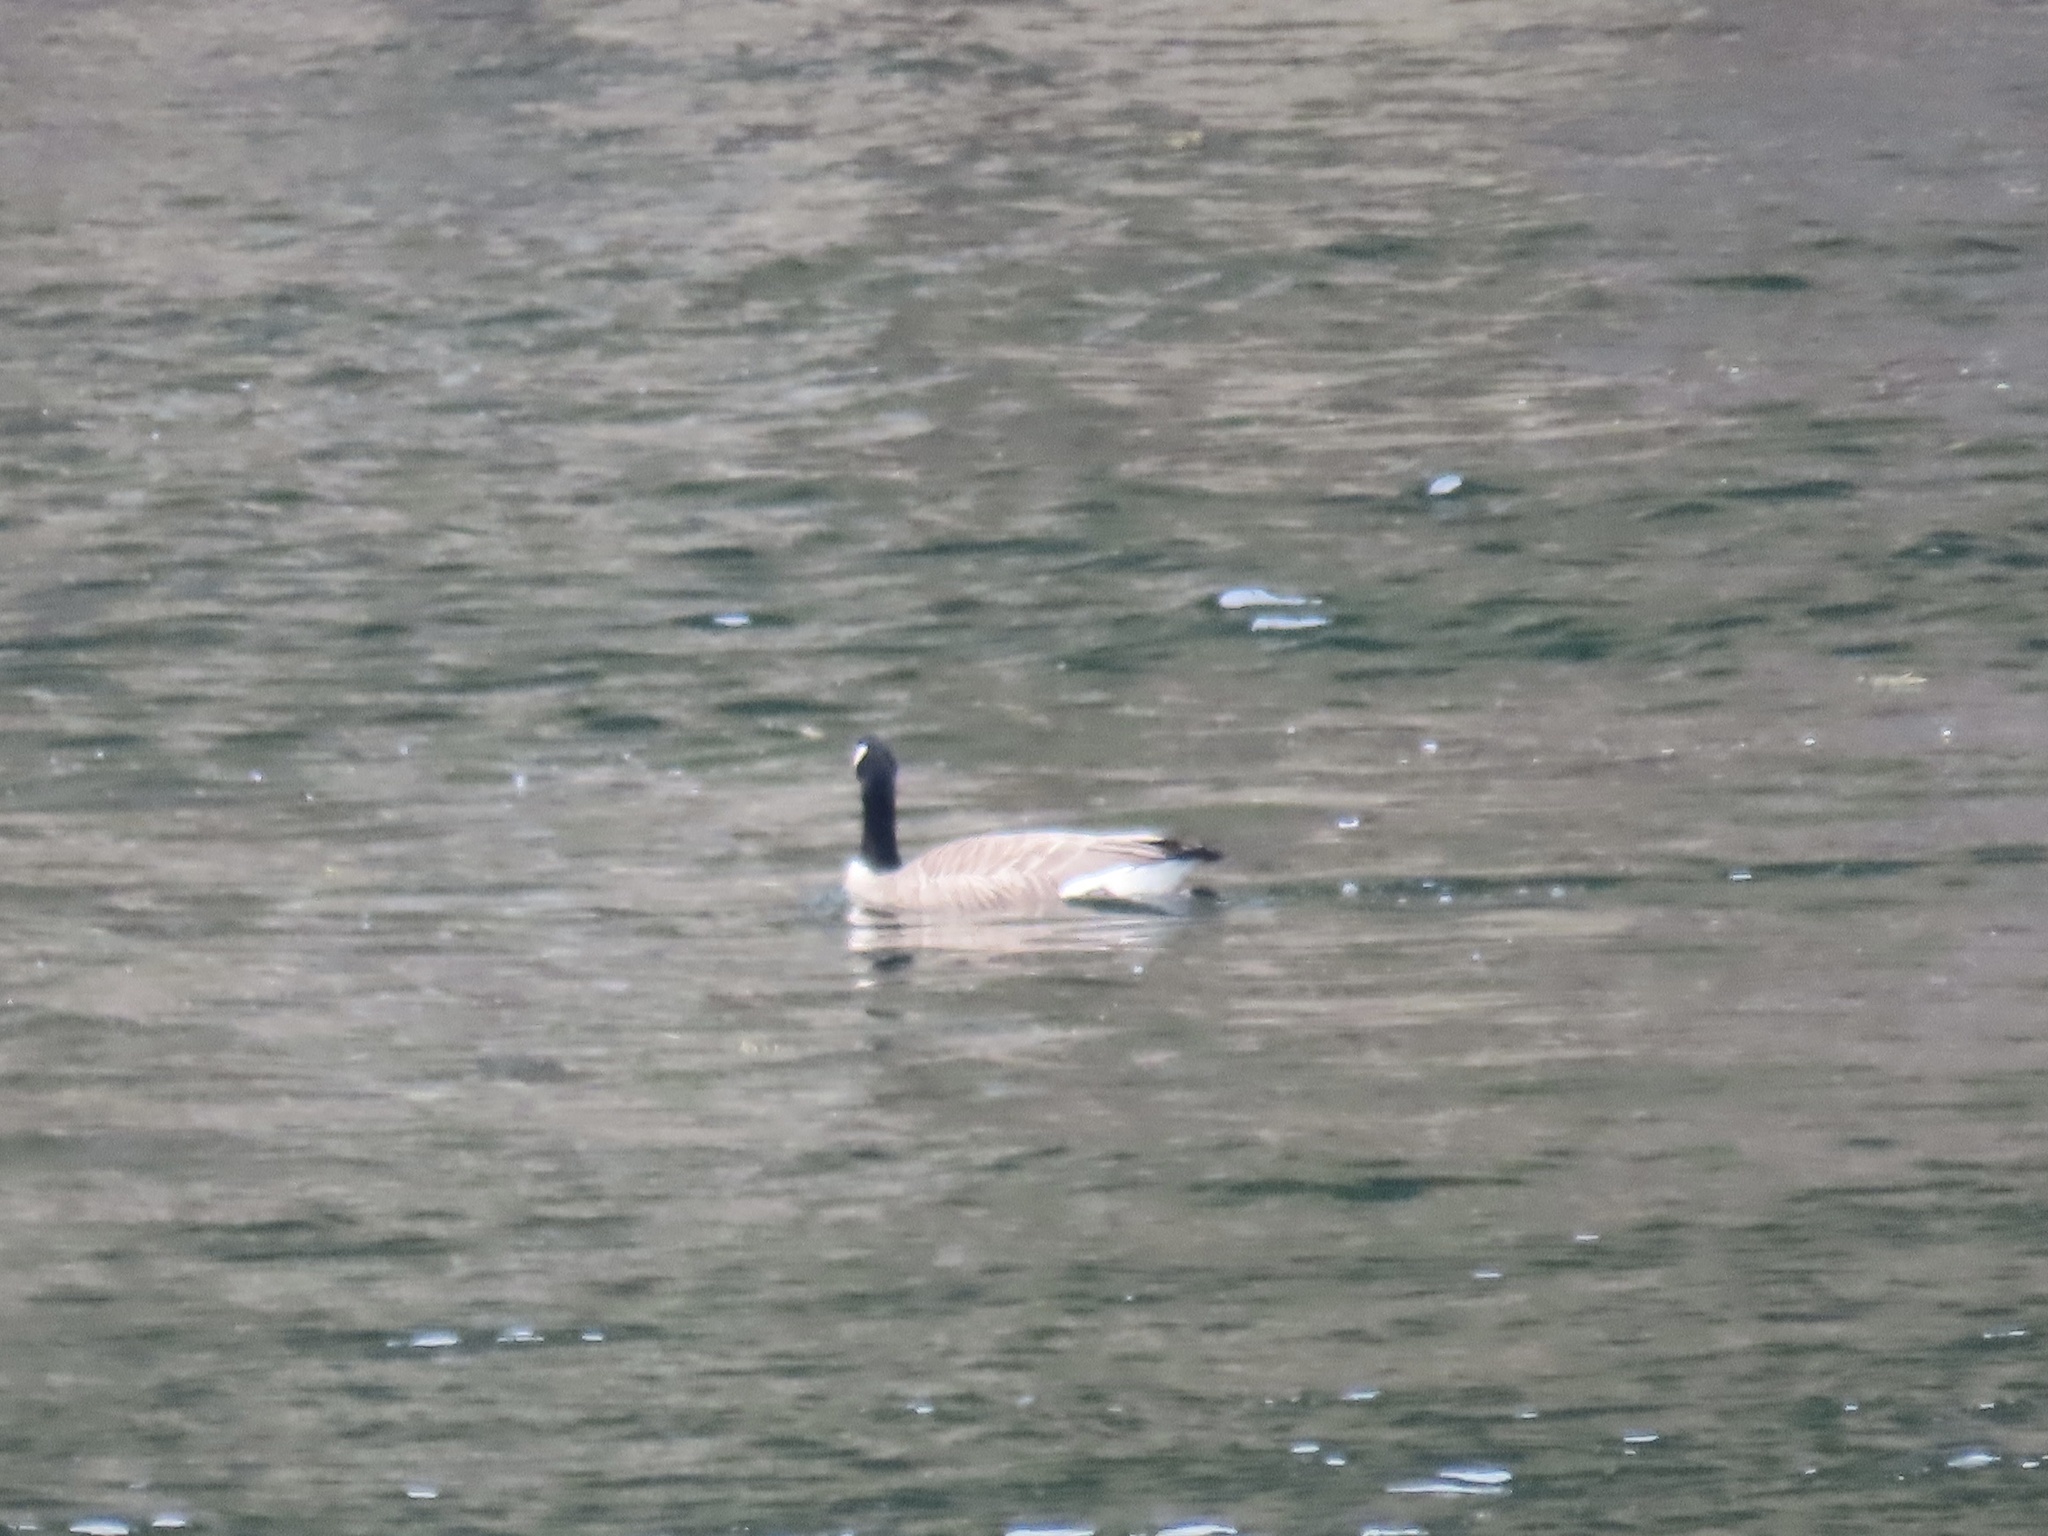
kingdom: Animalia
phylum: Chordata
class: Aves
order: Anseriformes
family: Anatidae
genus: Branta
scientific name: Branta canadensis
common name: Canada goose
